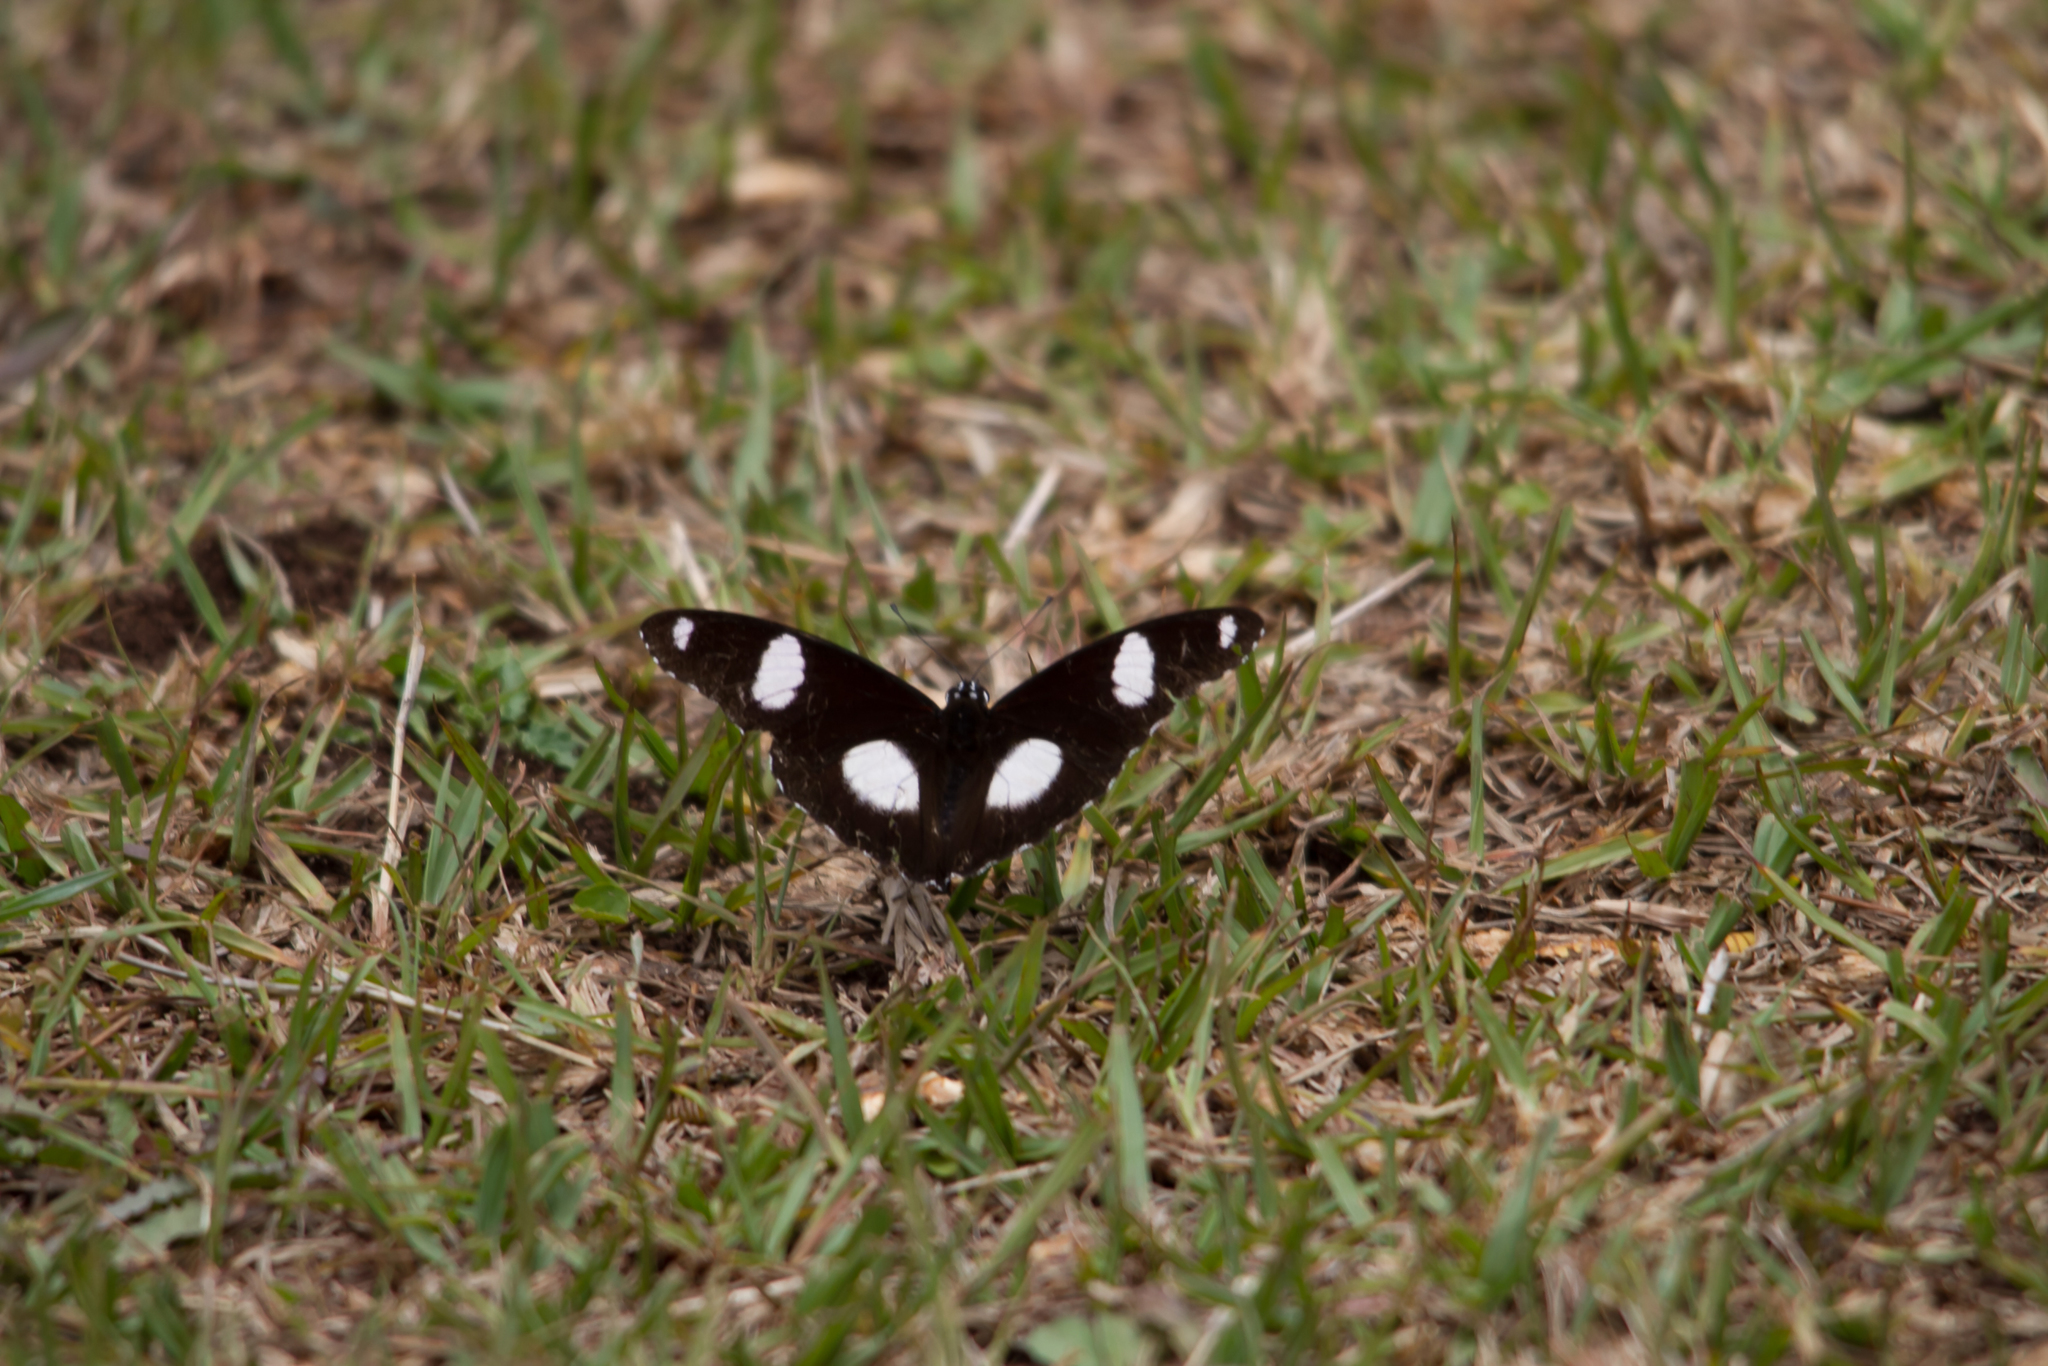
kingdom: Animalia
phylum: Arthropoda
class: Insecta
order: Lepidoptera
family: Nymphalidae
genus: Hypolimnas
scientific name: Hypolimnas misippus
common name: False plain tiger
